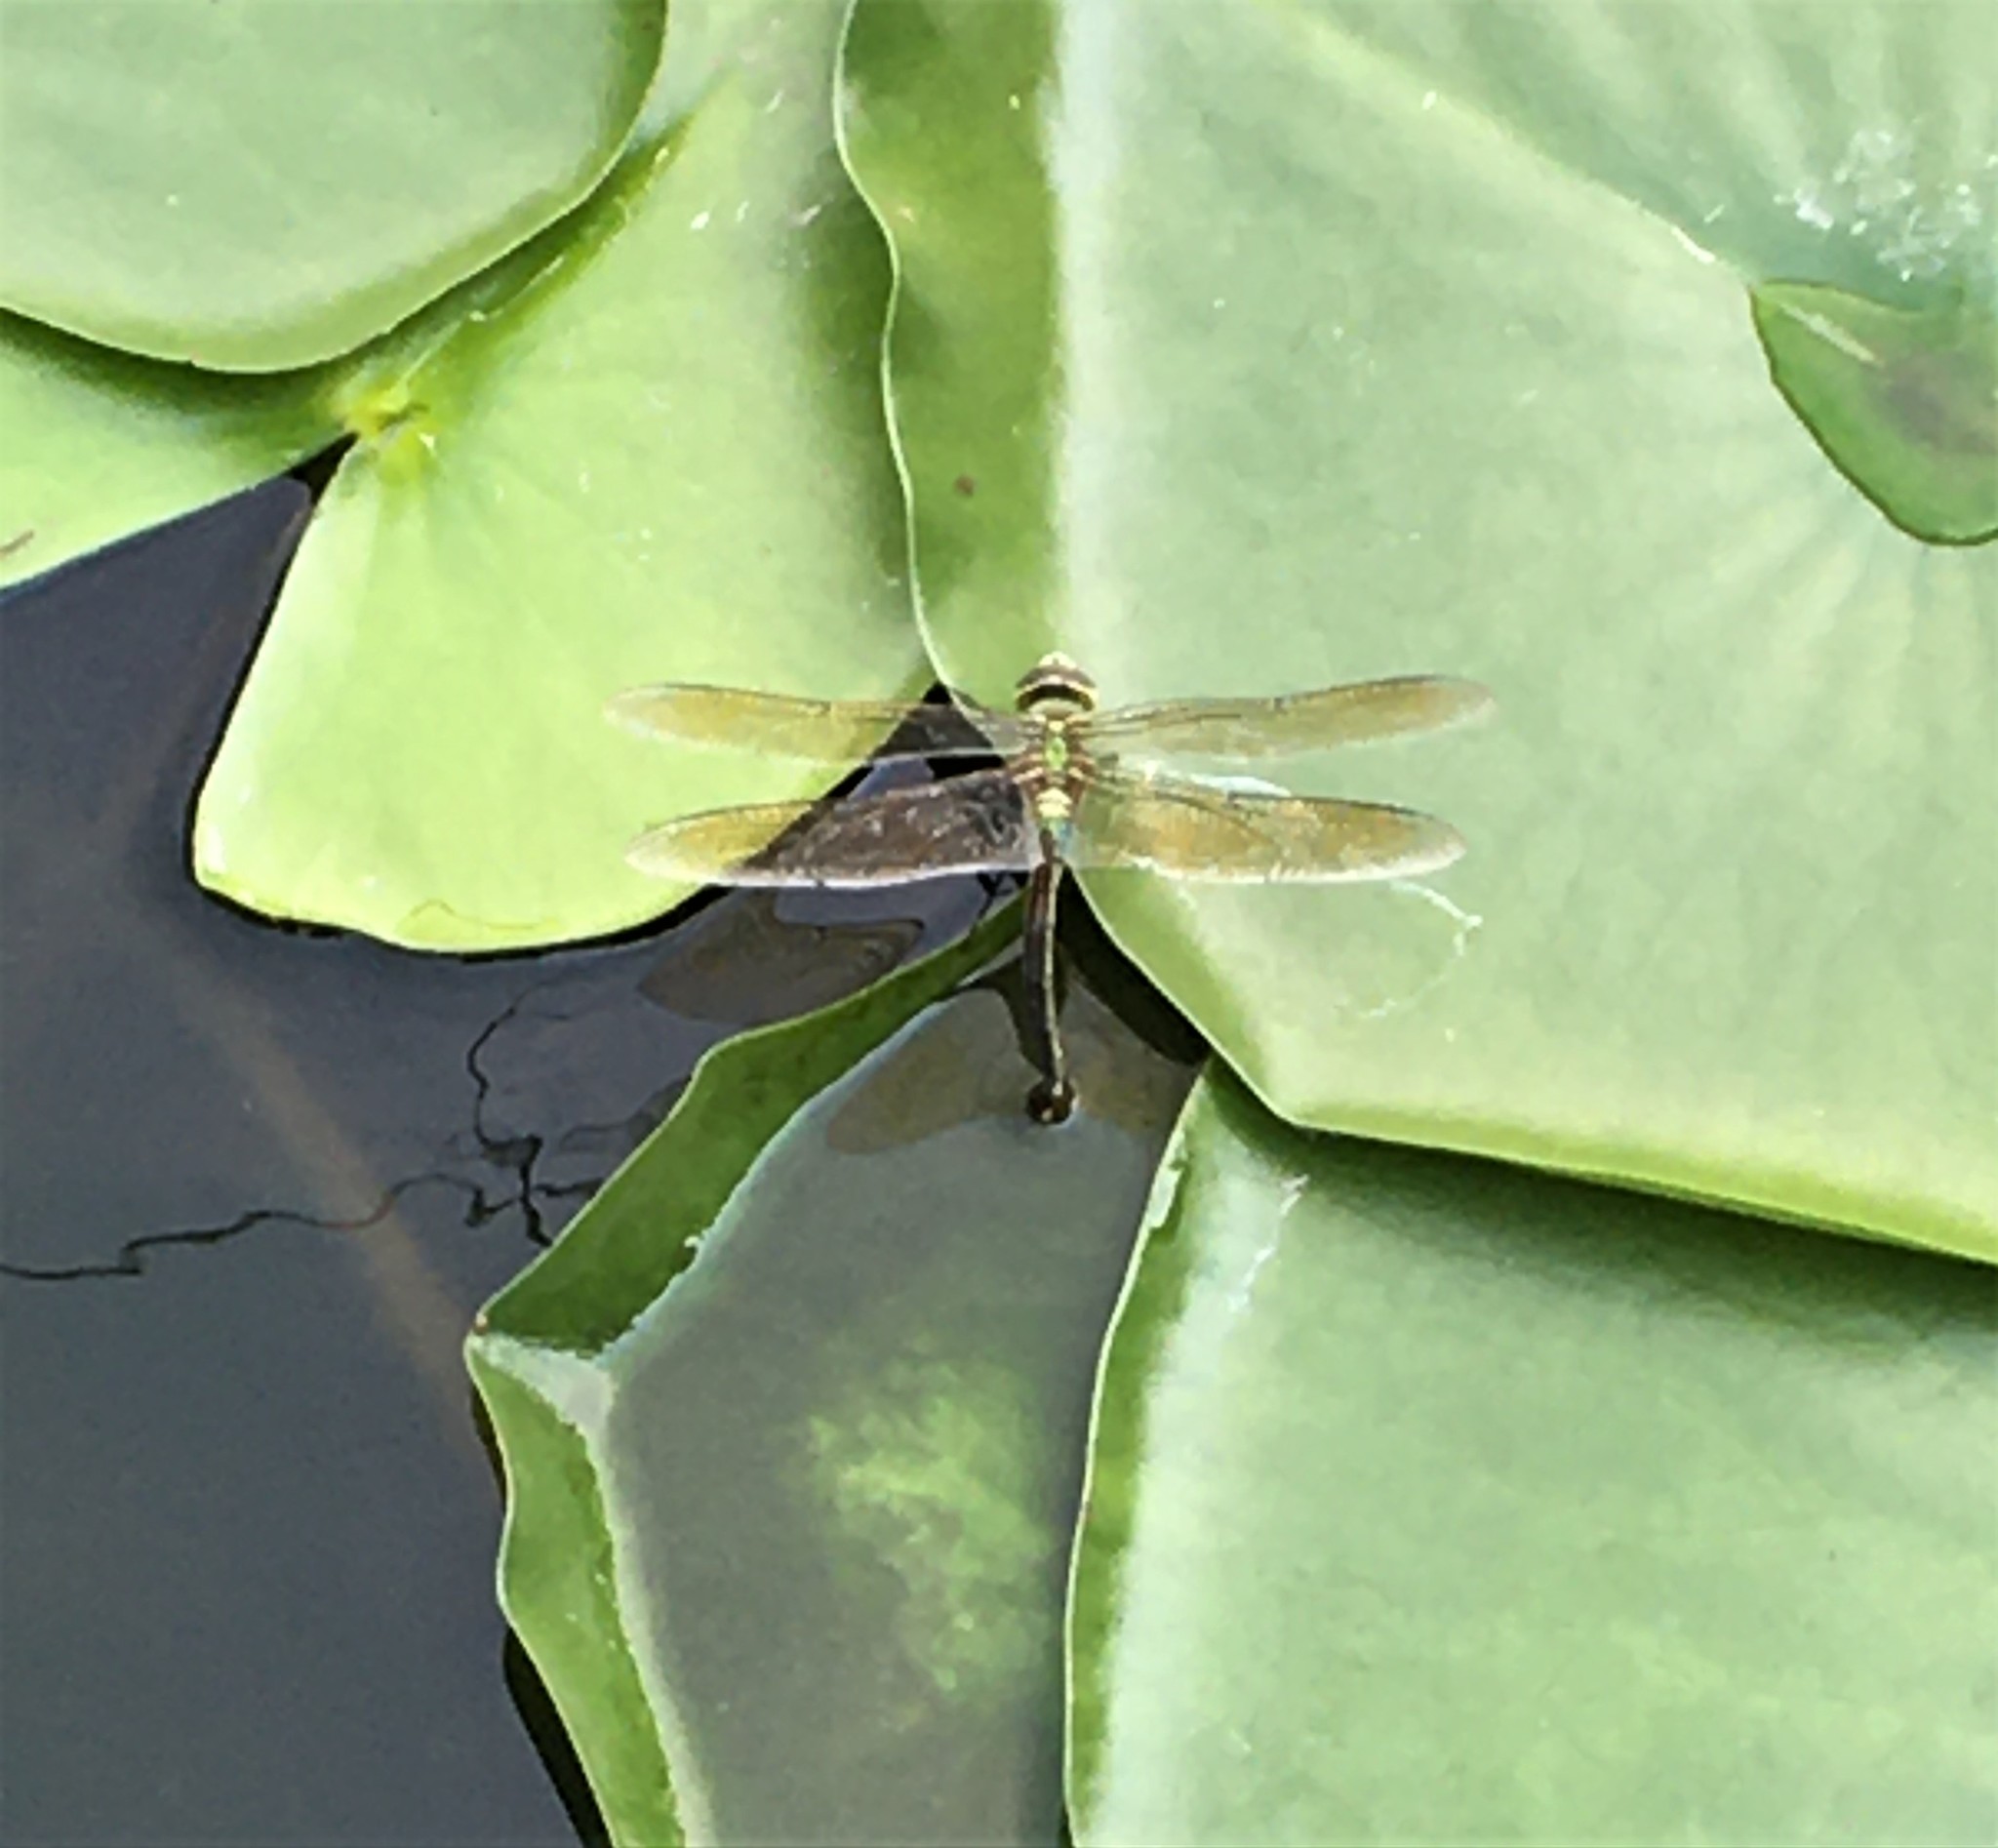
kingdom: Animalia
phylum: Arthropoda
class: Insecta
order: Odonata
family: Aeshnidae
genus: Anax
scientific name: Anax junius
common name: Common green darner
